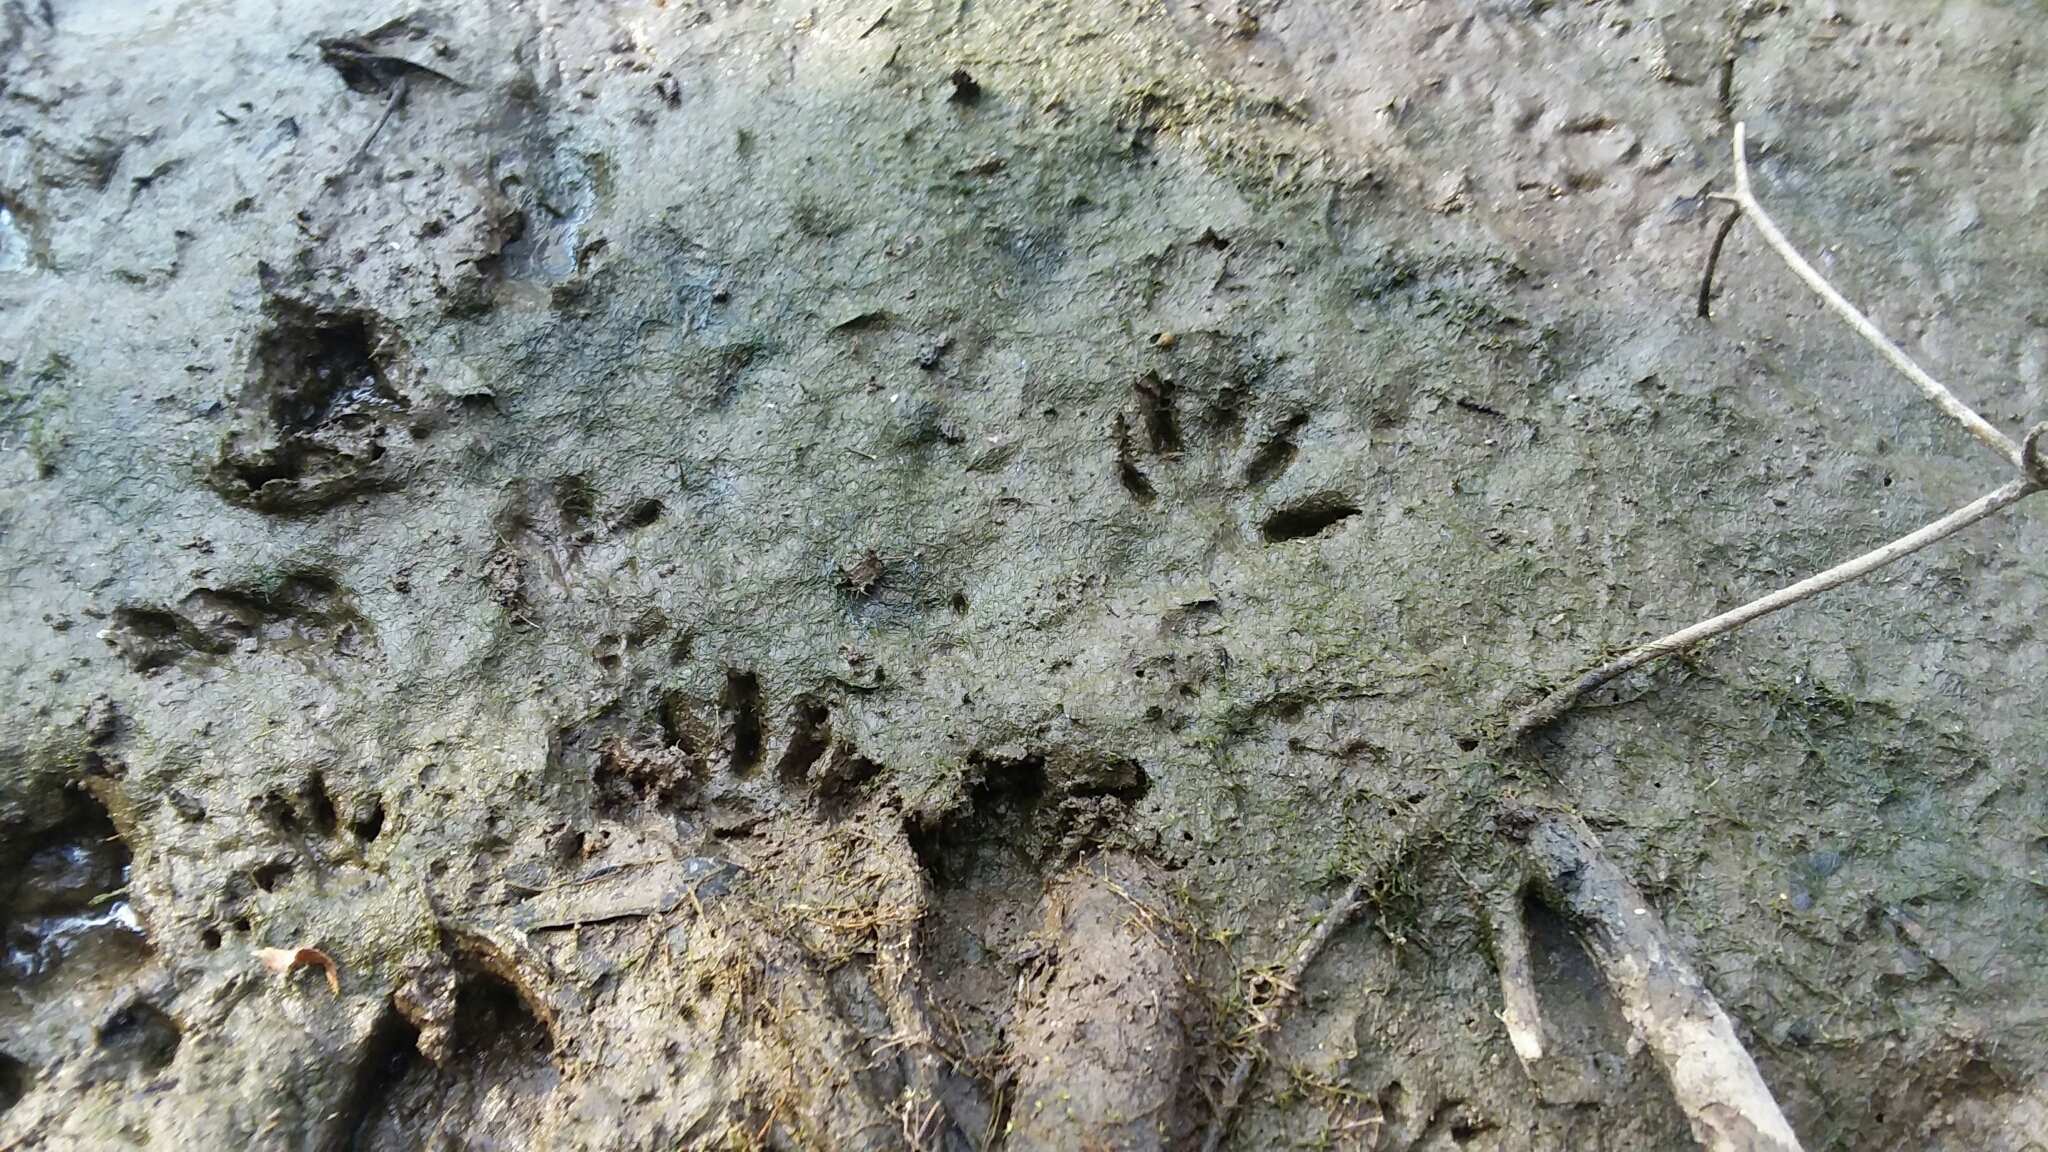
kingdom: Animalia
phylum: Chordata
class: Mammalia
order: Carnivora
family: Procyonidae
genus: Procyon
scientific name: Procyon lotor
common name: Raccoon
